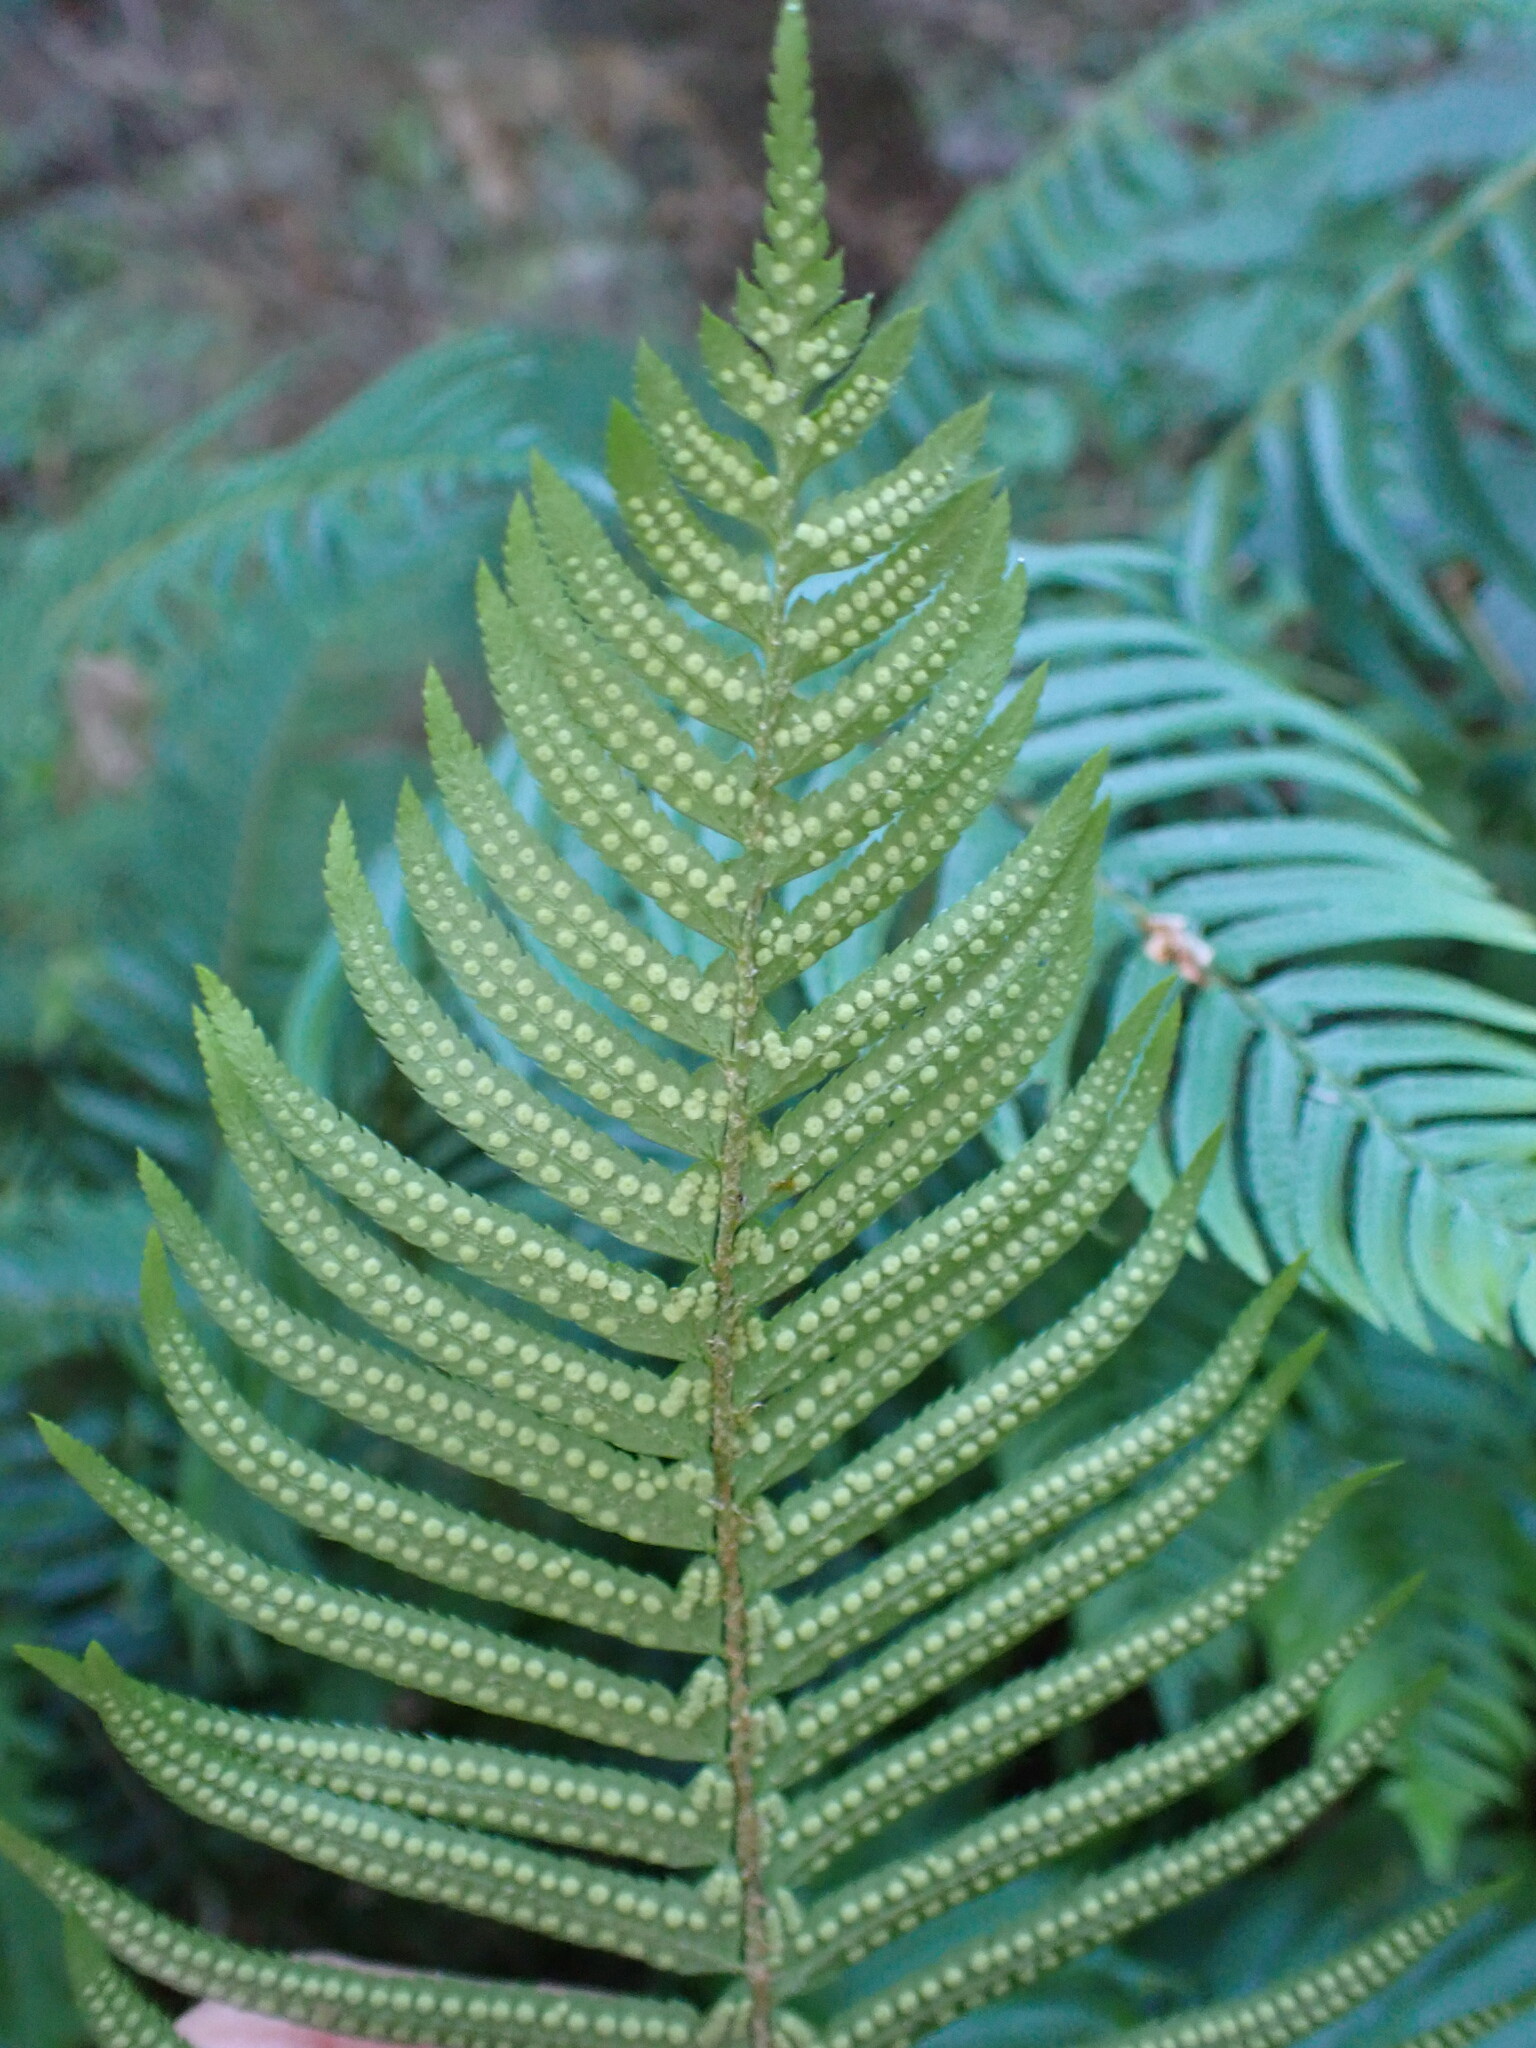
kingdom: Plantae
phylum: Tracheophyta
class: Polypodiopsida
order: Polypodiales
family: Dryopteridaceae
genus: Polystichum
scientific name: Polystichum munitum
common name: Western sword-fern
